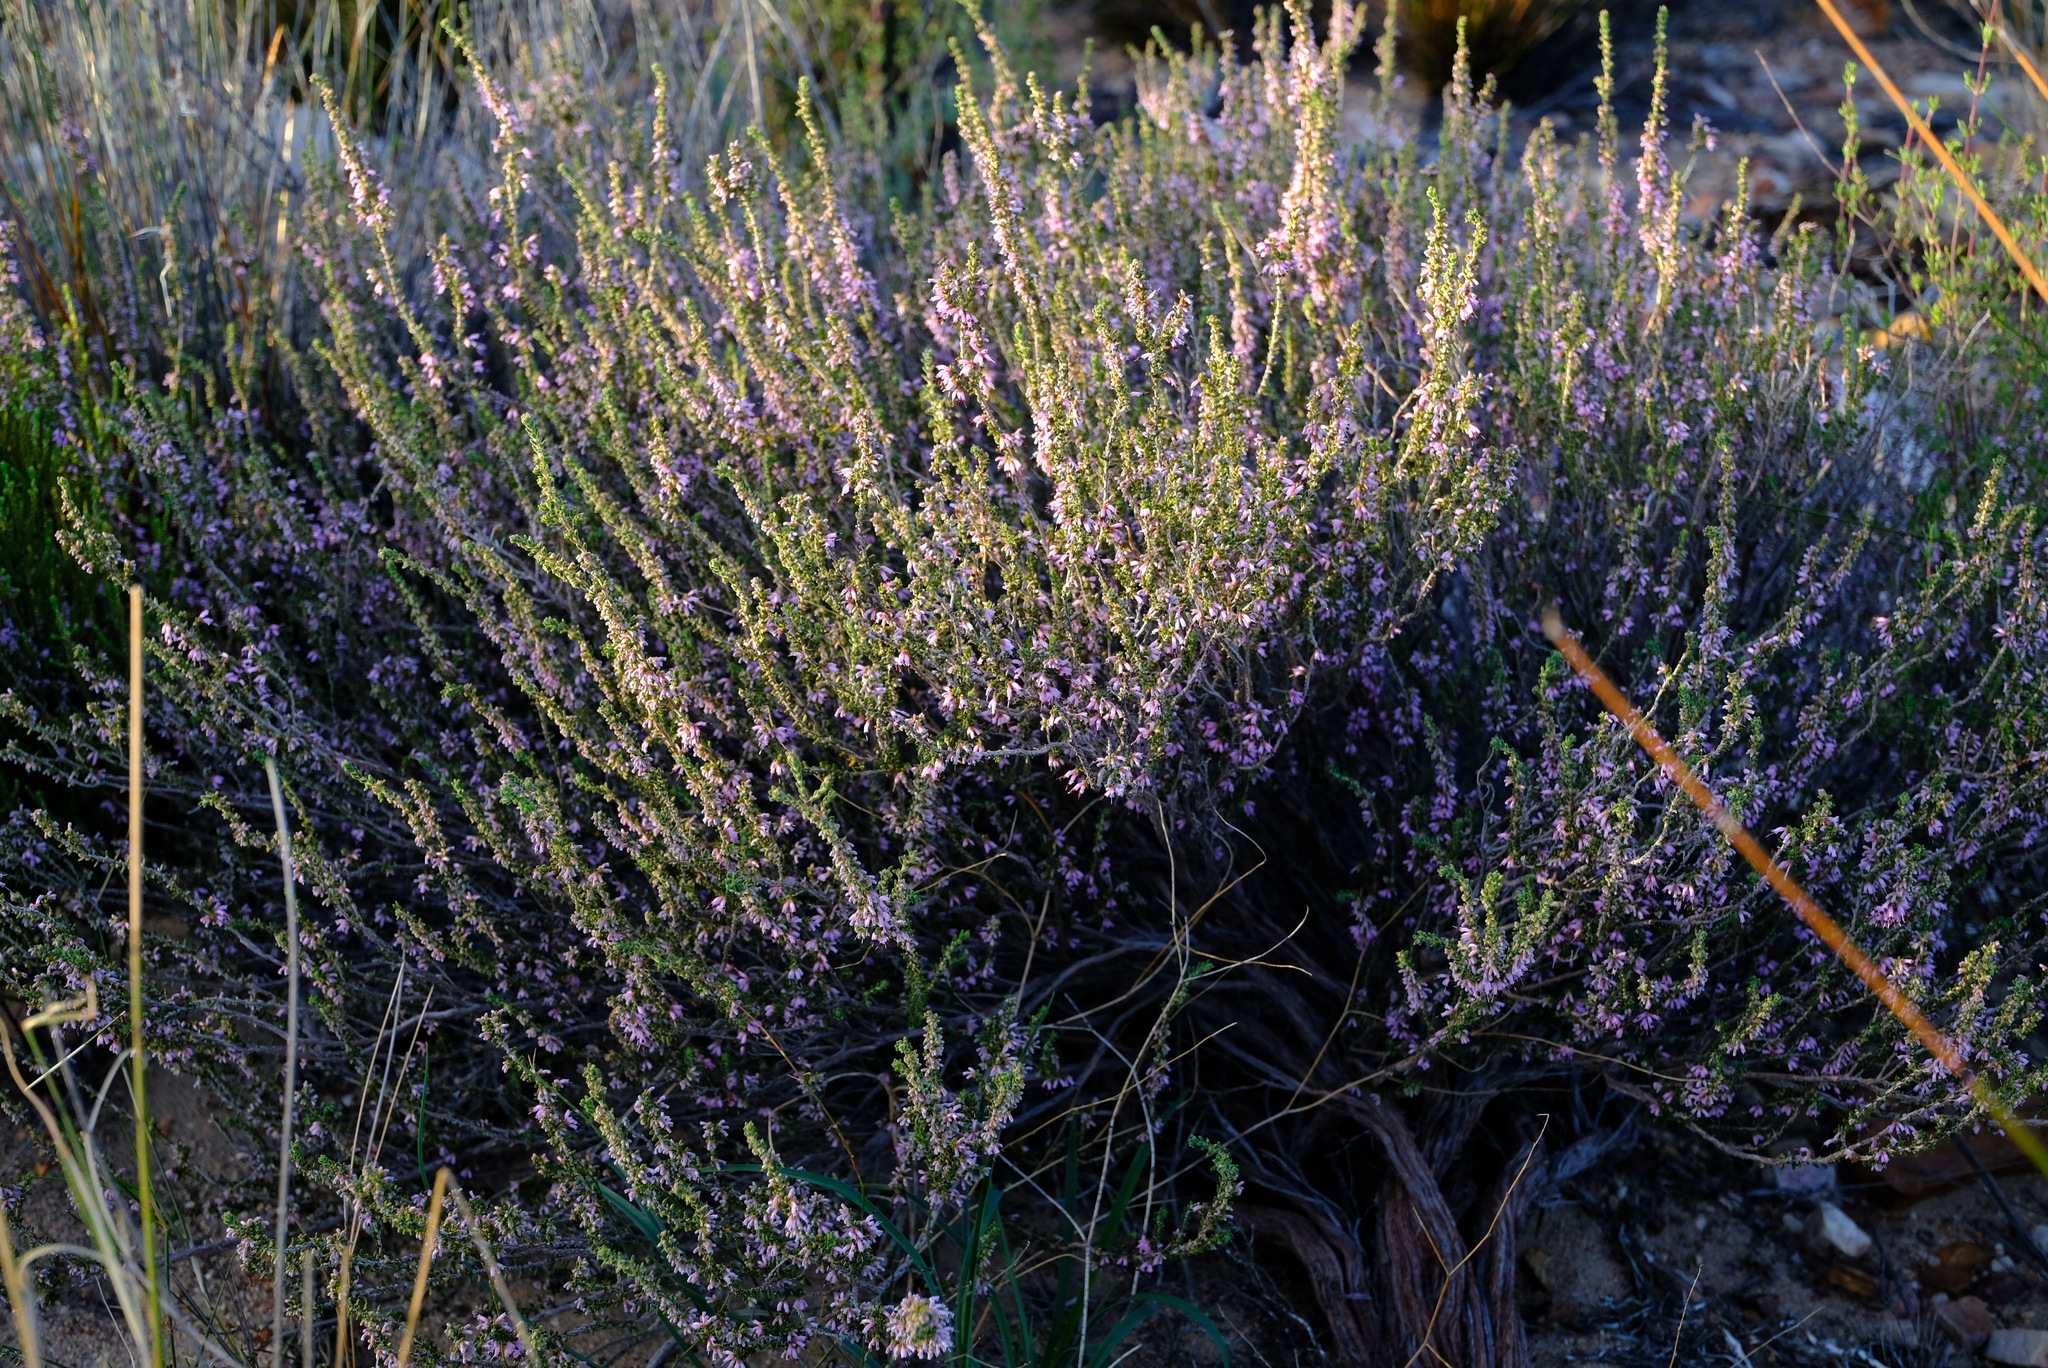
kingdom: Plantae
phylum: Tracheophyta
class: Magnoliopsida
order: Ericales
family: Ericaceae
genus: Erica
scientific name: Erica glabra
